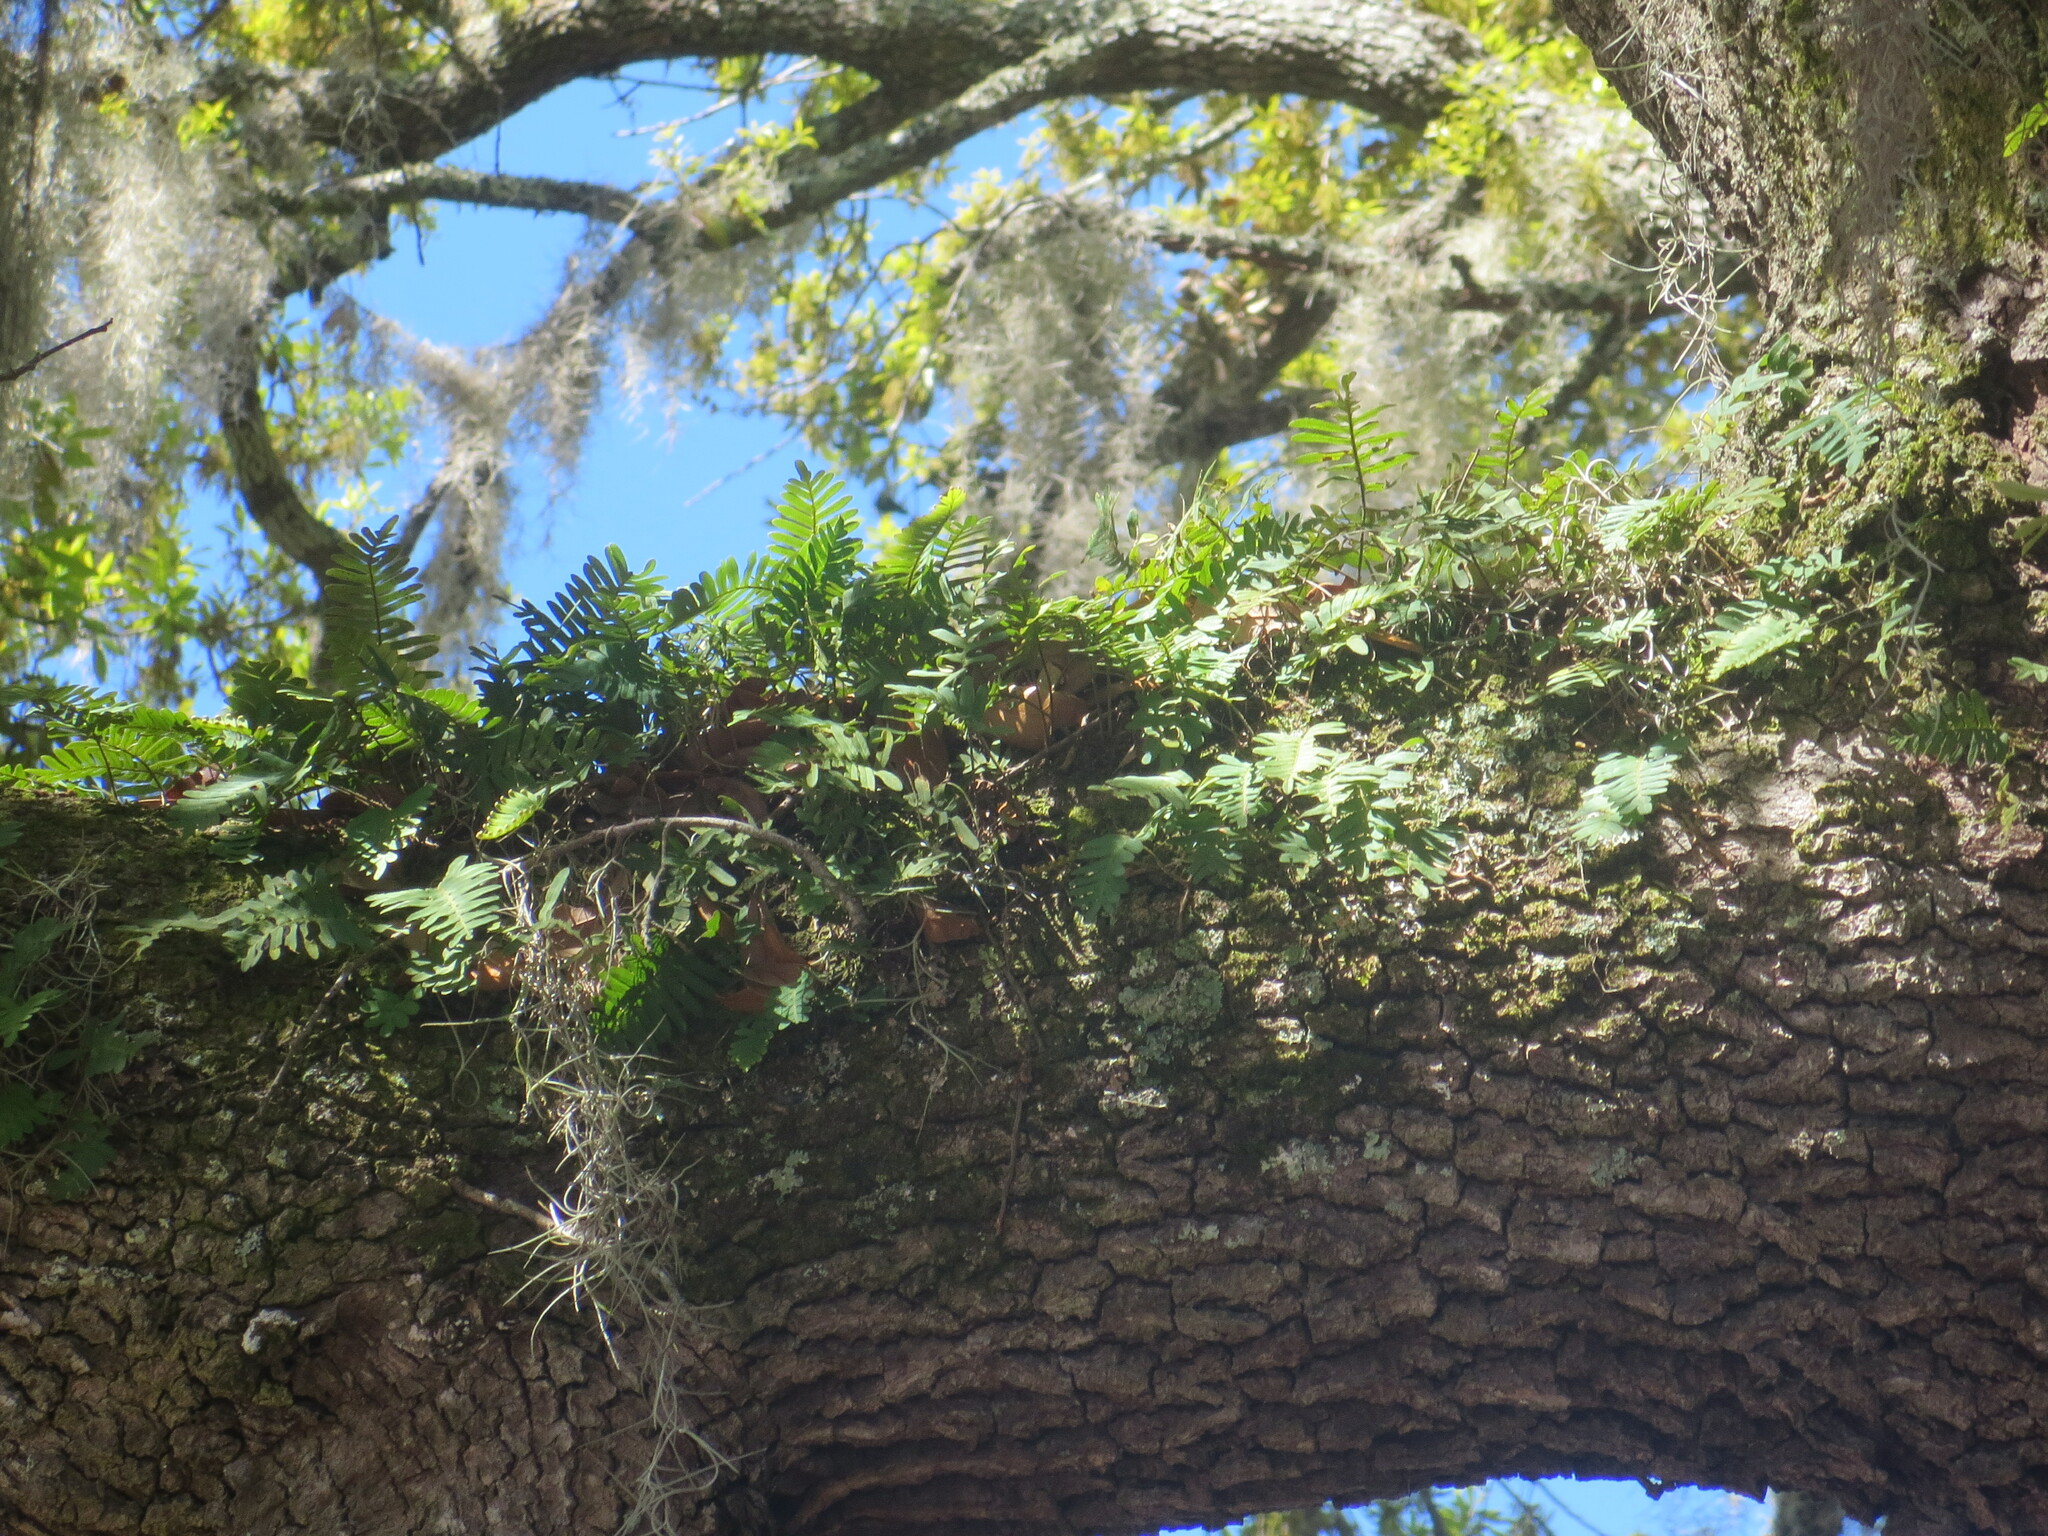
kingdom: Plantae
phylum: Tracheophyta
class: Polypodiopsida
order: Polypodiales
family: Polypodiaceae
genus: Pleopeltis
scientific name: Pleopeltis michauxiana
